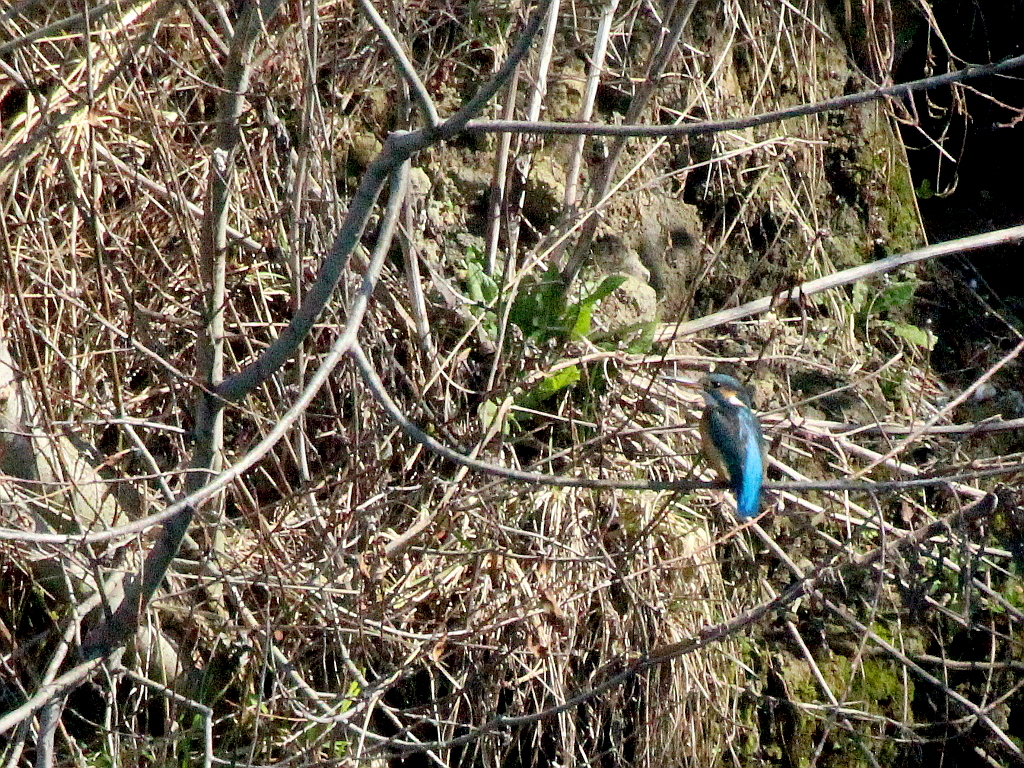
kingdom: Animalia
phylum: Chordata
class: Aves
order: Coraciiformes
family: Alcedinidae
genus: Alcedo
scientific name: Alcedo atthis
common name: Common kingfisher
